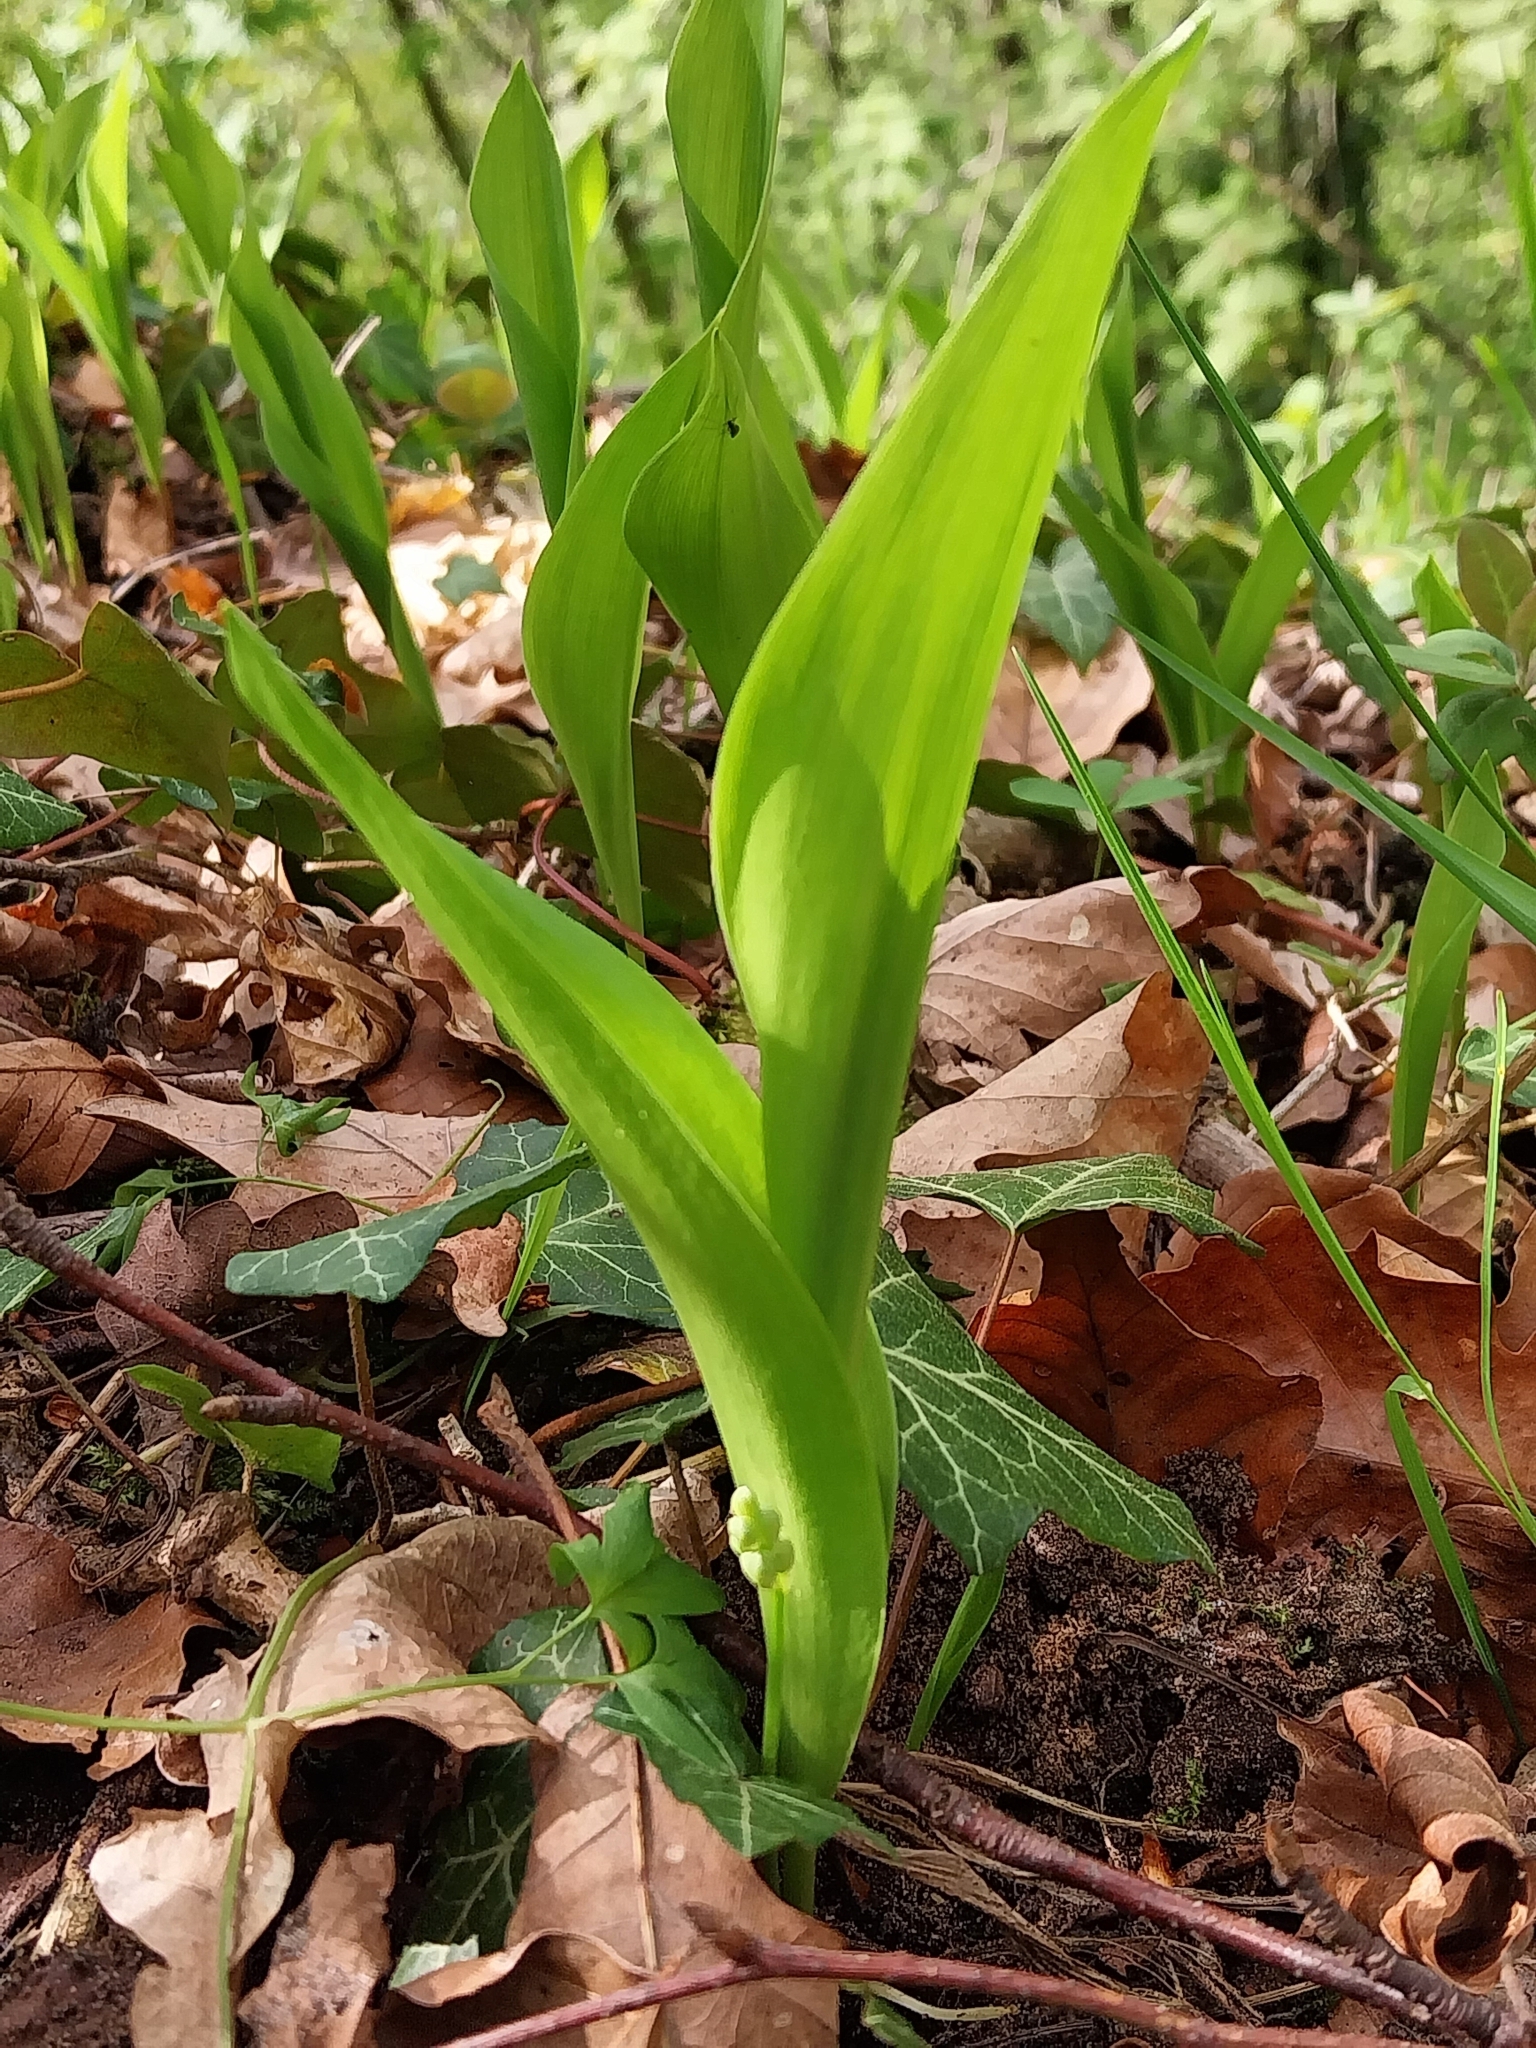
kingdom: Plantae
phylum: Tracheophyta
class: Liliopsida
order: Asparagales
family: Asparagaceae
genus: Convallaria
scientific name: Convallaria majalis
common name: Lily-of-the-valley
